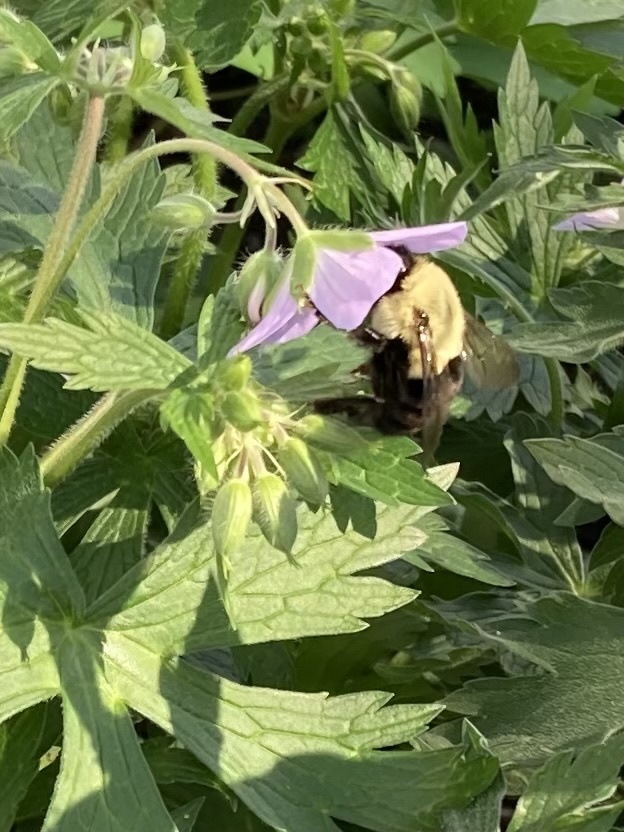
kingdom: Animalia
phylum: Arthropoda
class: Insecta
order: Hymenoptera
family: Apidae
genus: Bombus
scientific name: Bombus impatiens
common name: Common eastern bumble bee
